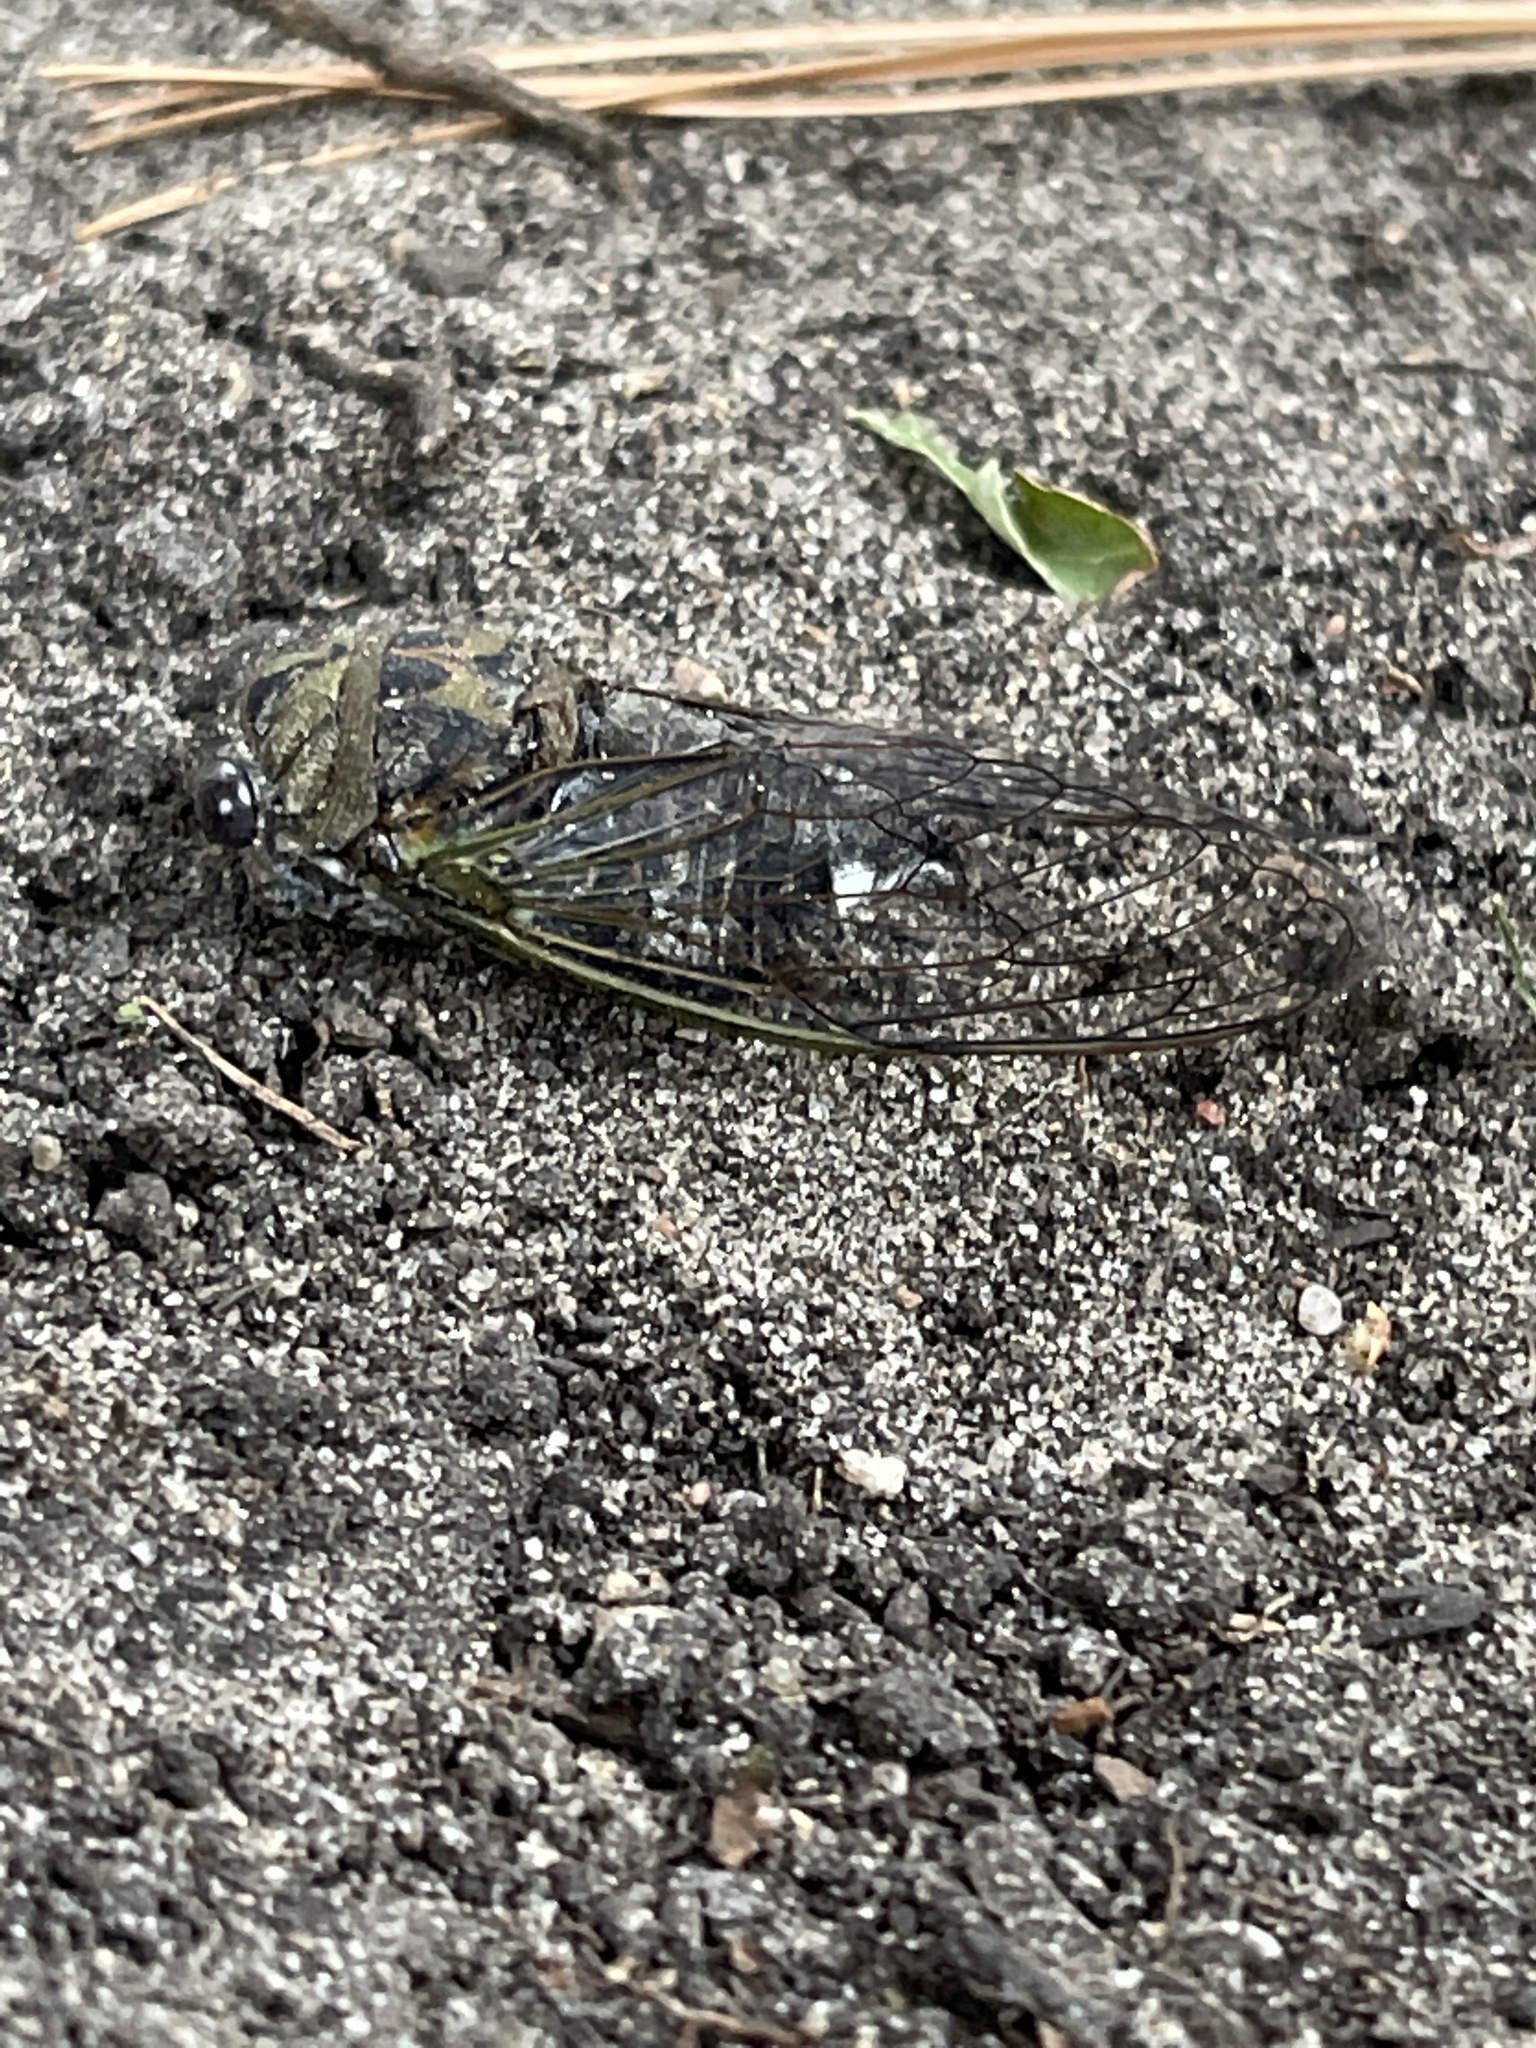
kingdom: Animalia
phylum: Arthropoda
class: Insecta
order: Hemiptera
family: Cicadidae
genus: Neotibicen
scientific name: Neotibicen canicularis
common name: God-day cicada
